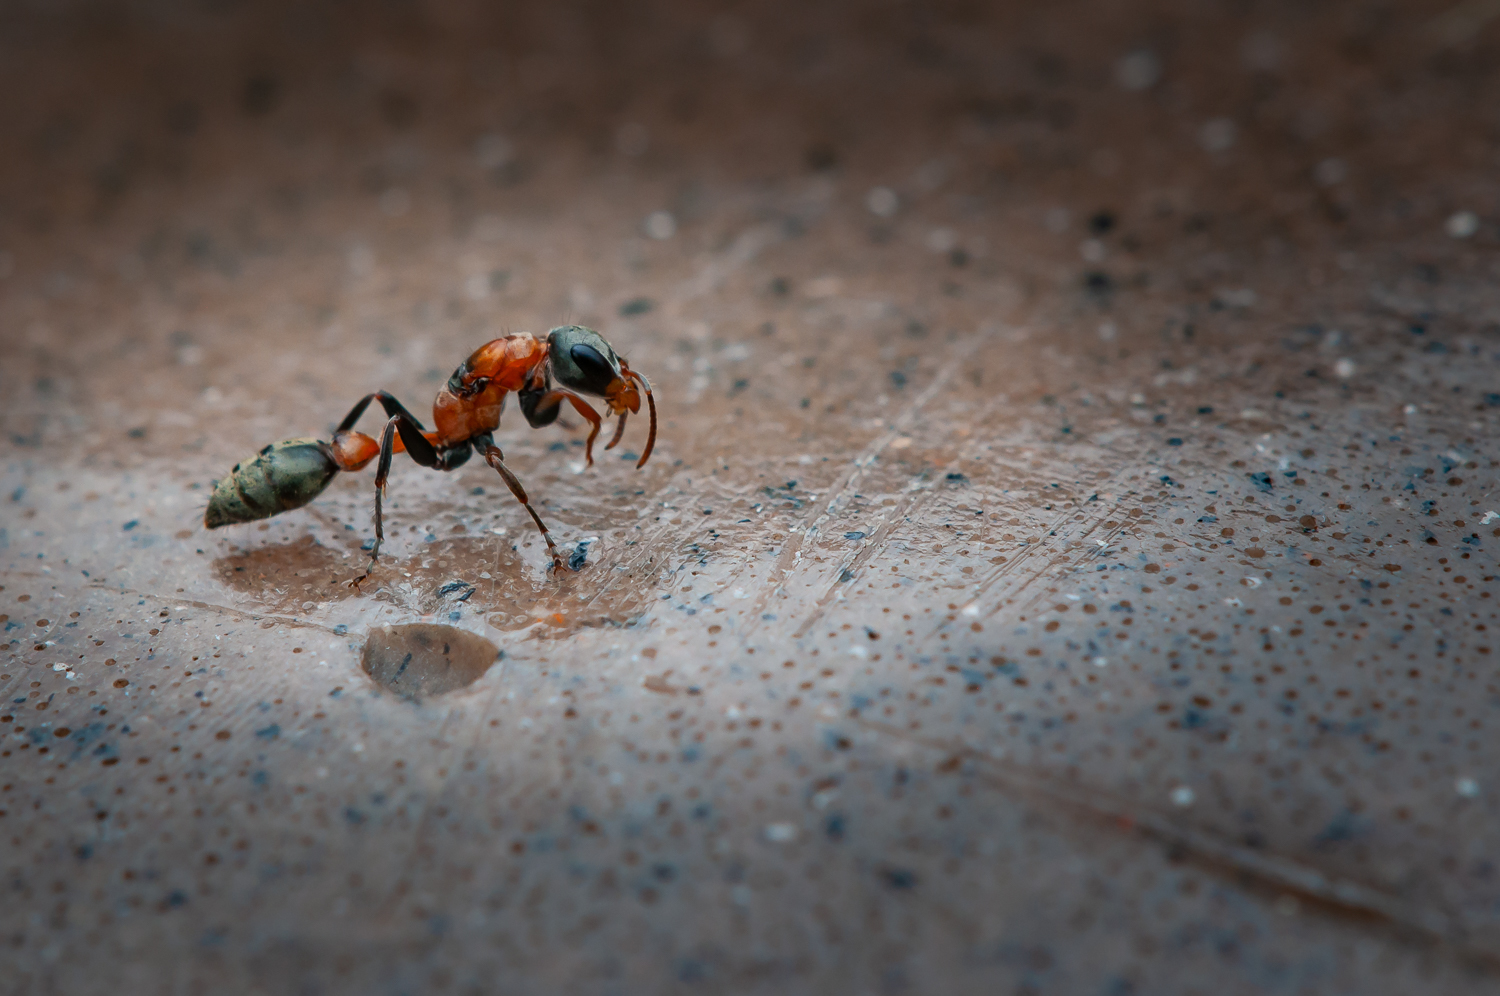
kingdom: Animalia
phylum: Arthropoda
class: Insecta
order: Hymenoptera
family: Formicidae
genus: Pseudomyrmex
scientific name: Pseudomyrmex gracilis
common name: Graceful twig ant
